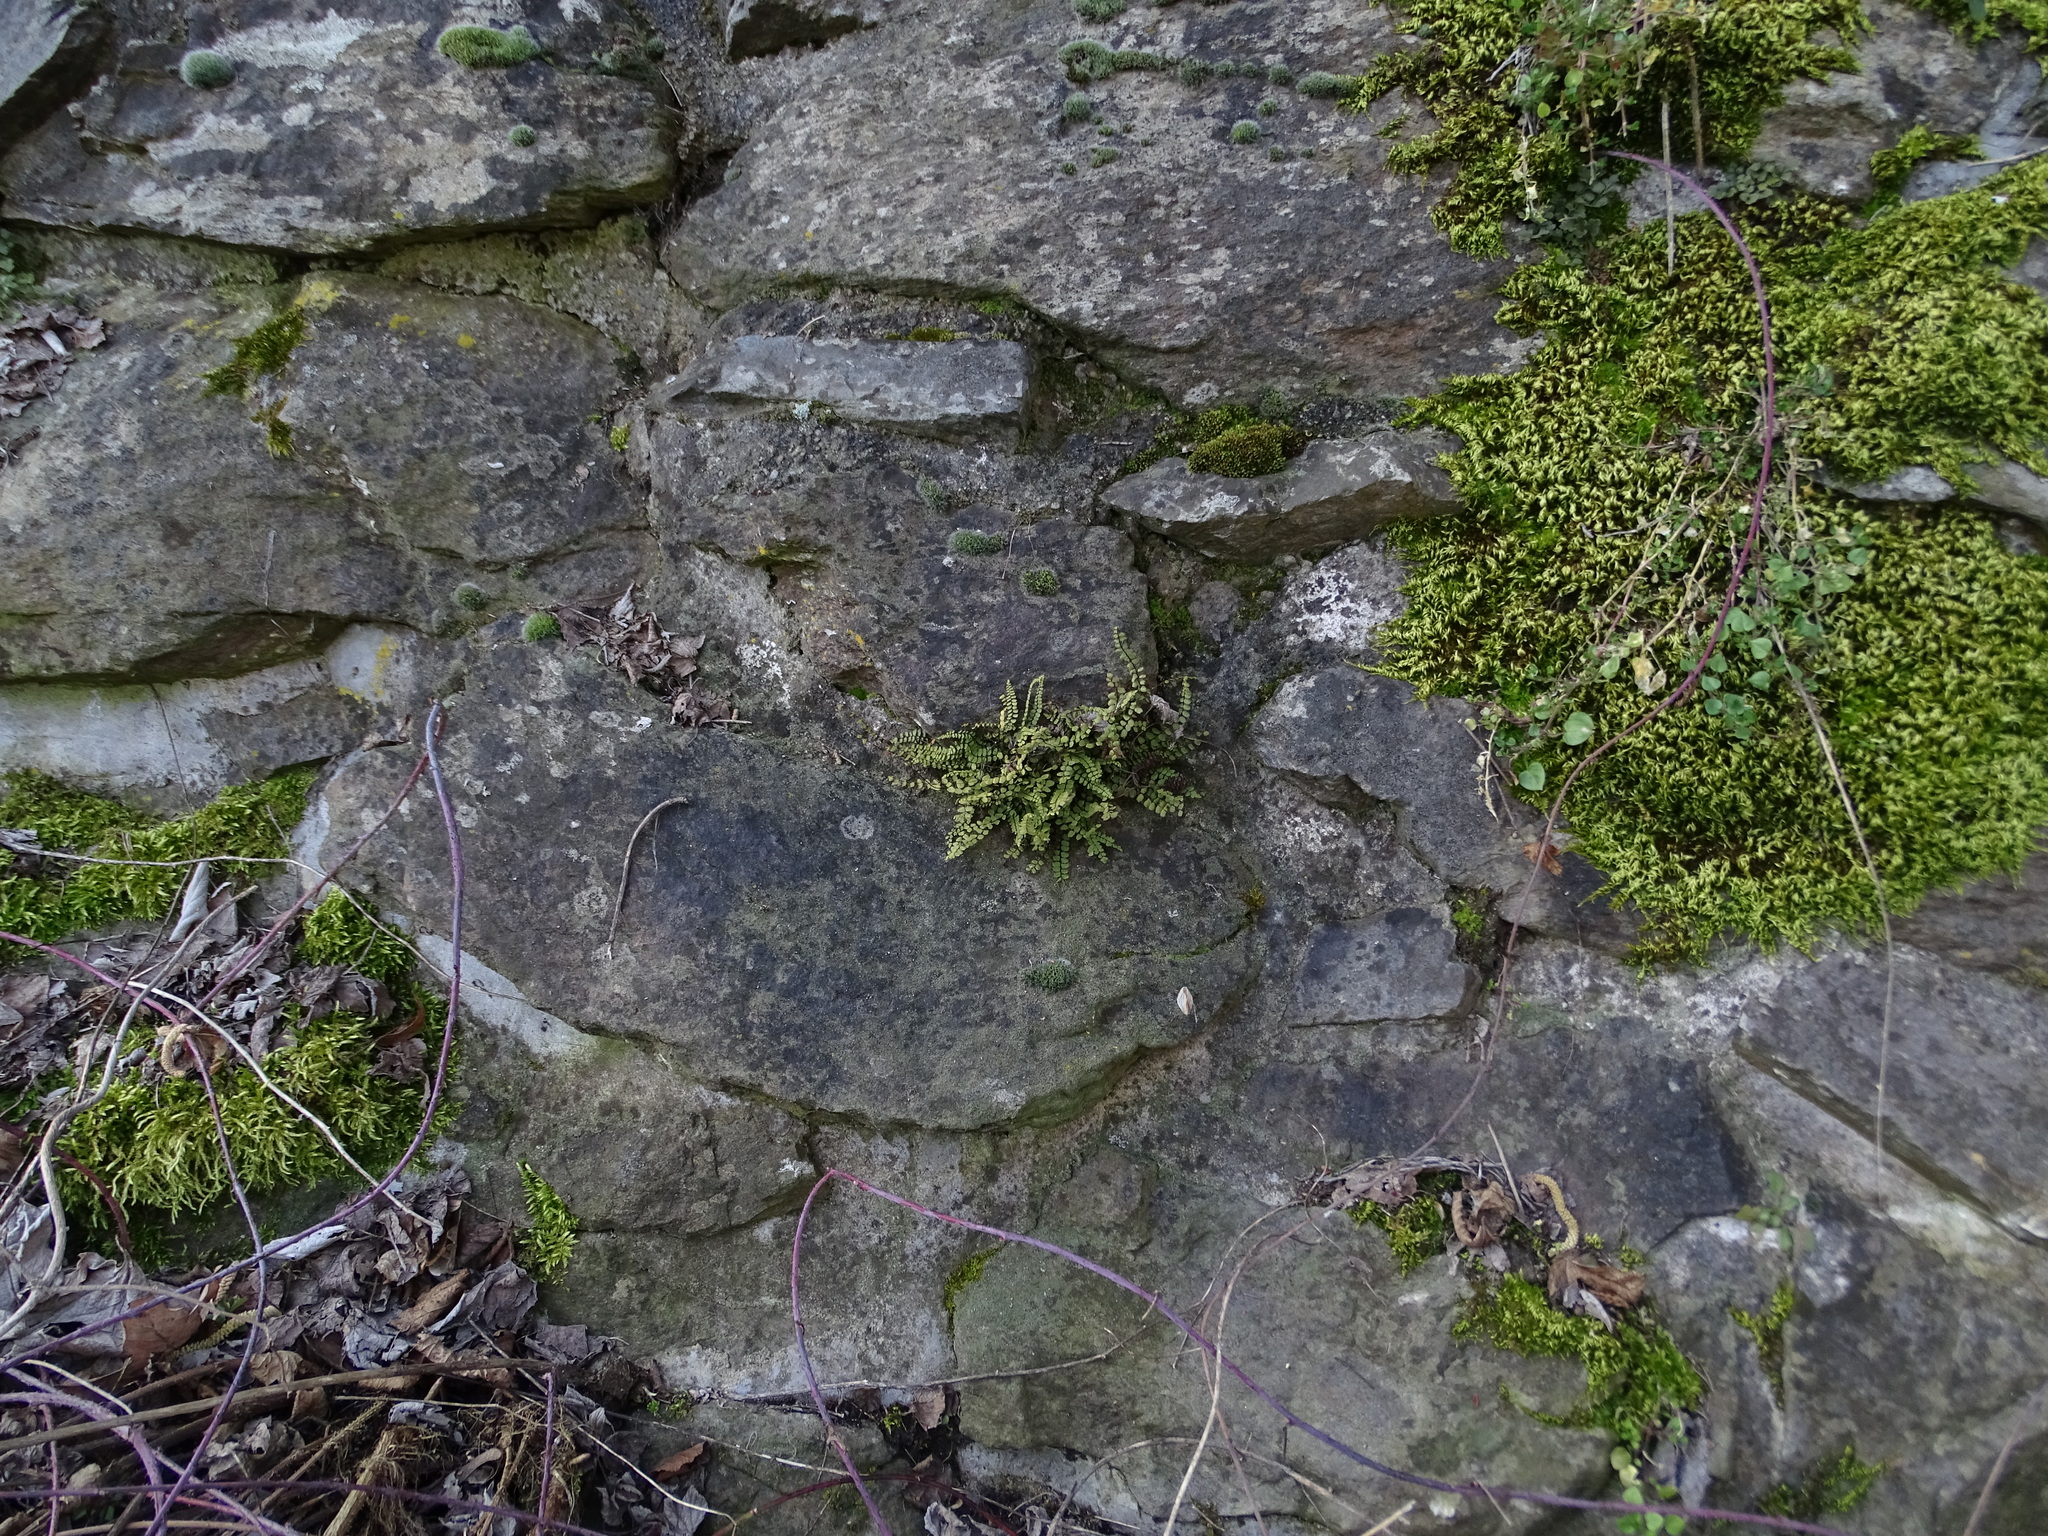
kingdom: Plantae
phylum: Tracheophyta
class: Polypodiopsida
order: Polypodiales
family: Aspleniaceae
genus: Asplenium
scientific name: Asplenium trichomanes
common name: Maidenhair spleenwort
